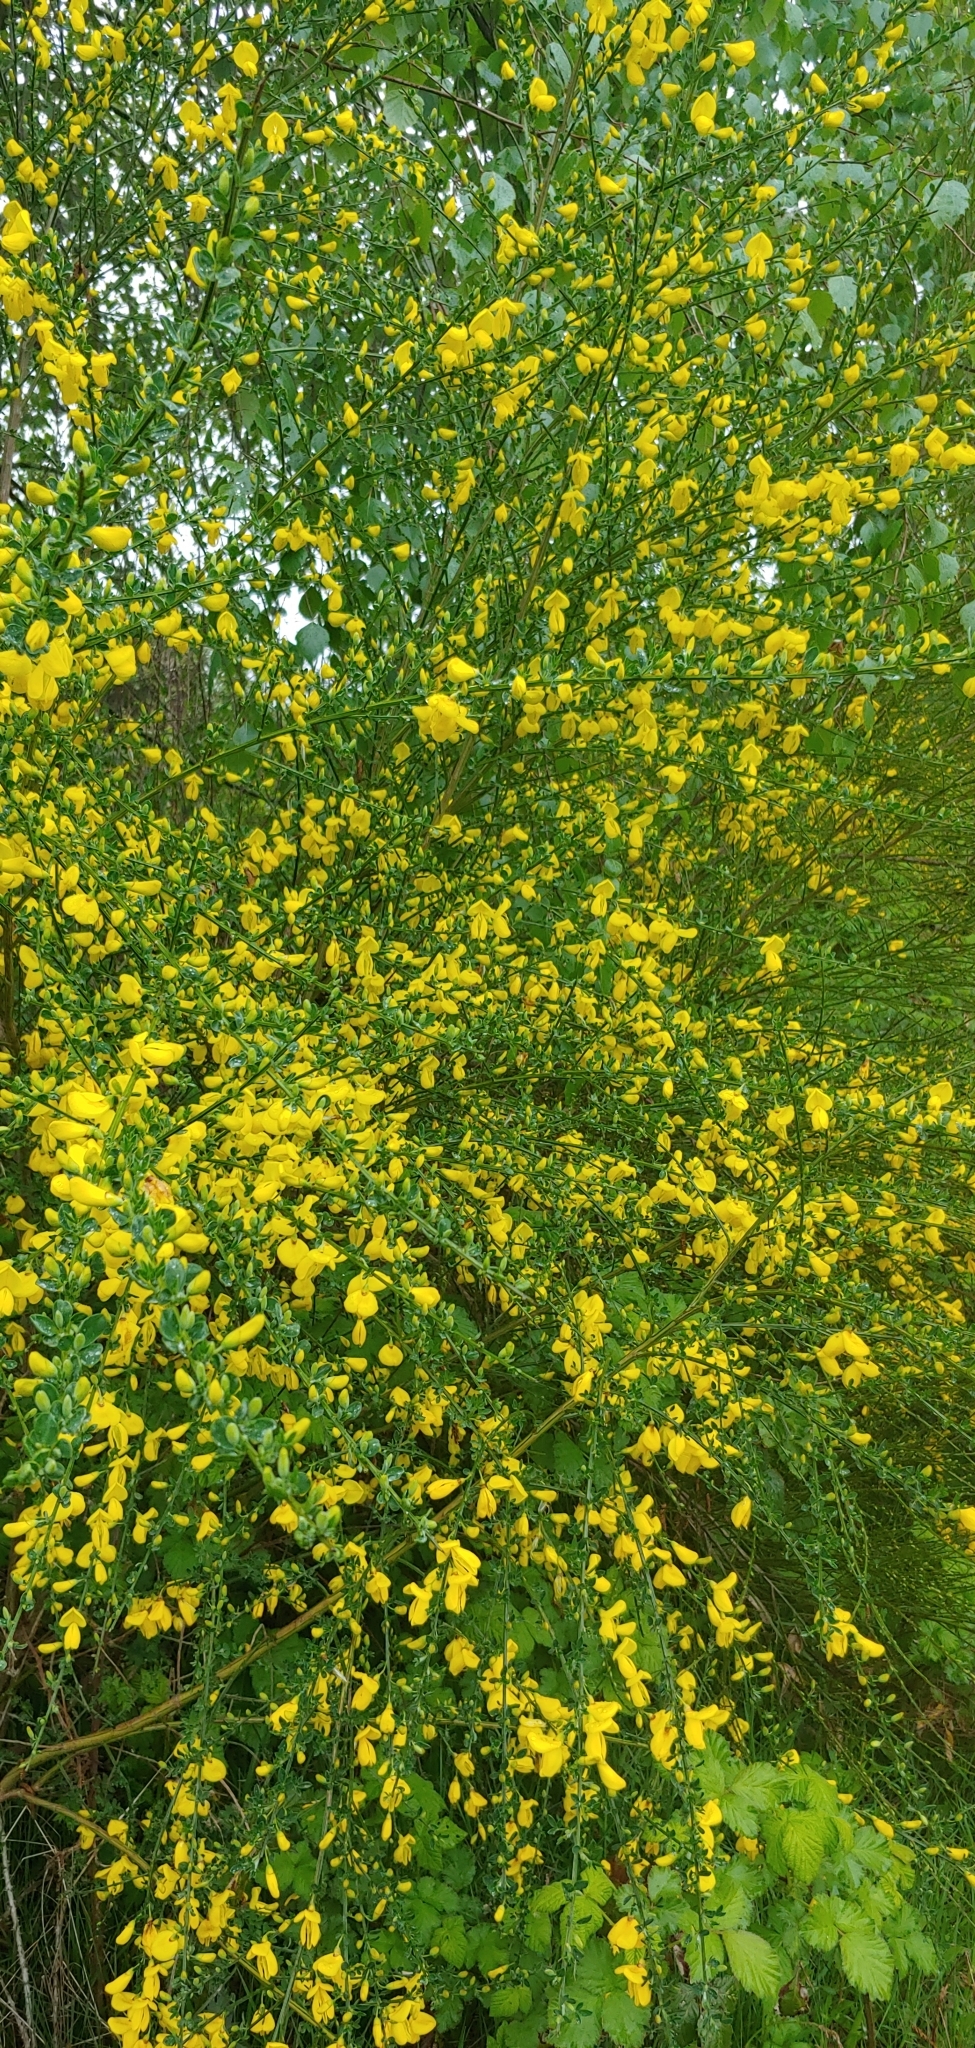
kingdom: Plantae
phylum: Tracheophyta
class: Magnoliopsida
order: Fabales
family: Fabaceae
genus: Cytisus
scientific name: Cytisus scoparius
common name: Scotch broom
